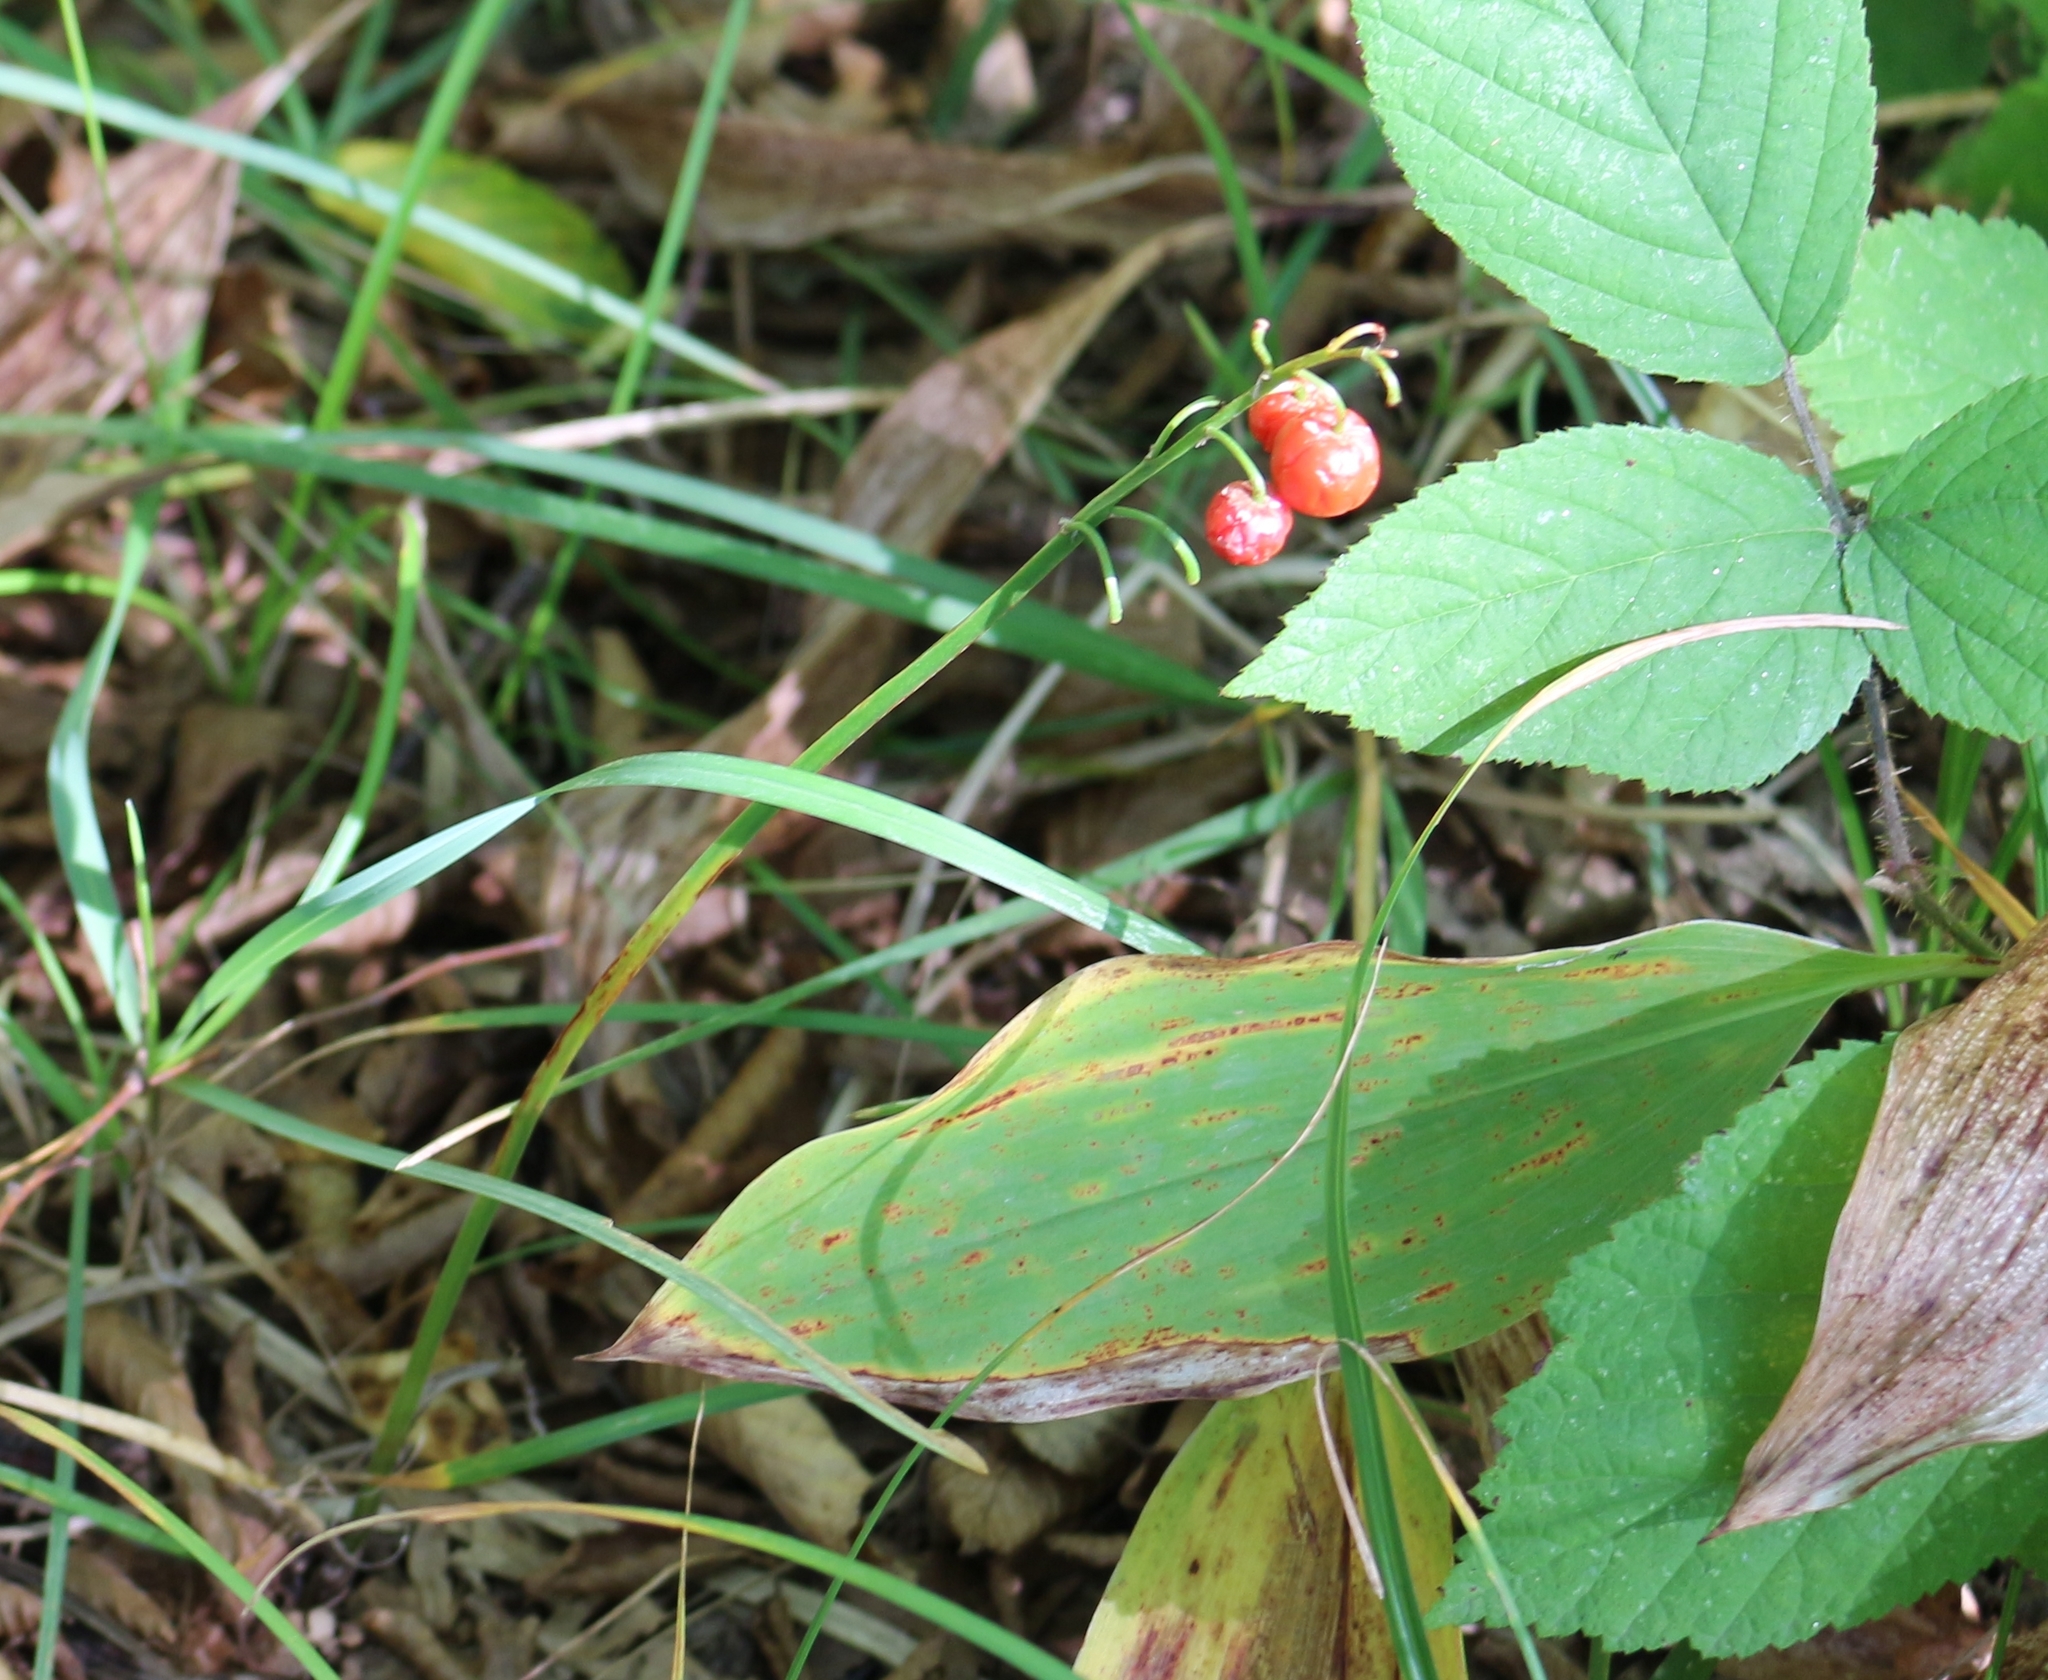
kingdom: Plantae
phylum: Tracheophyta
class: Liliopsida
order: Asparagales
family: Asparagaceae
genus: Convallaria
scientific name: Convallaria majalis
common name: Lily-of-the-valley
